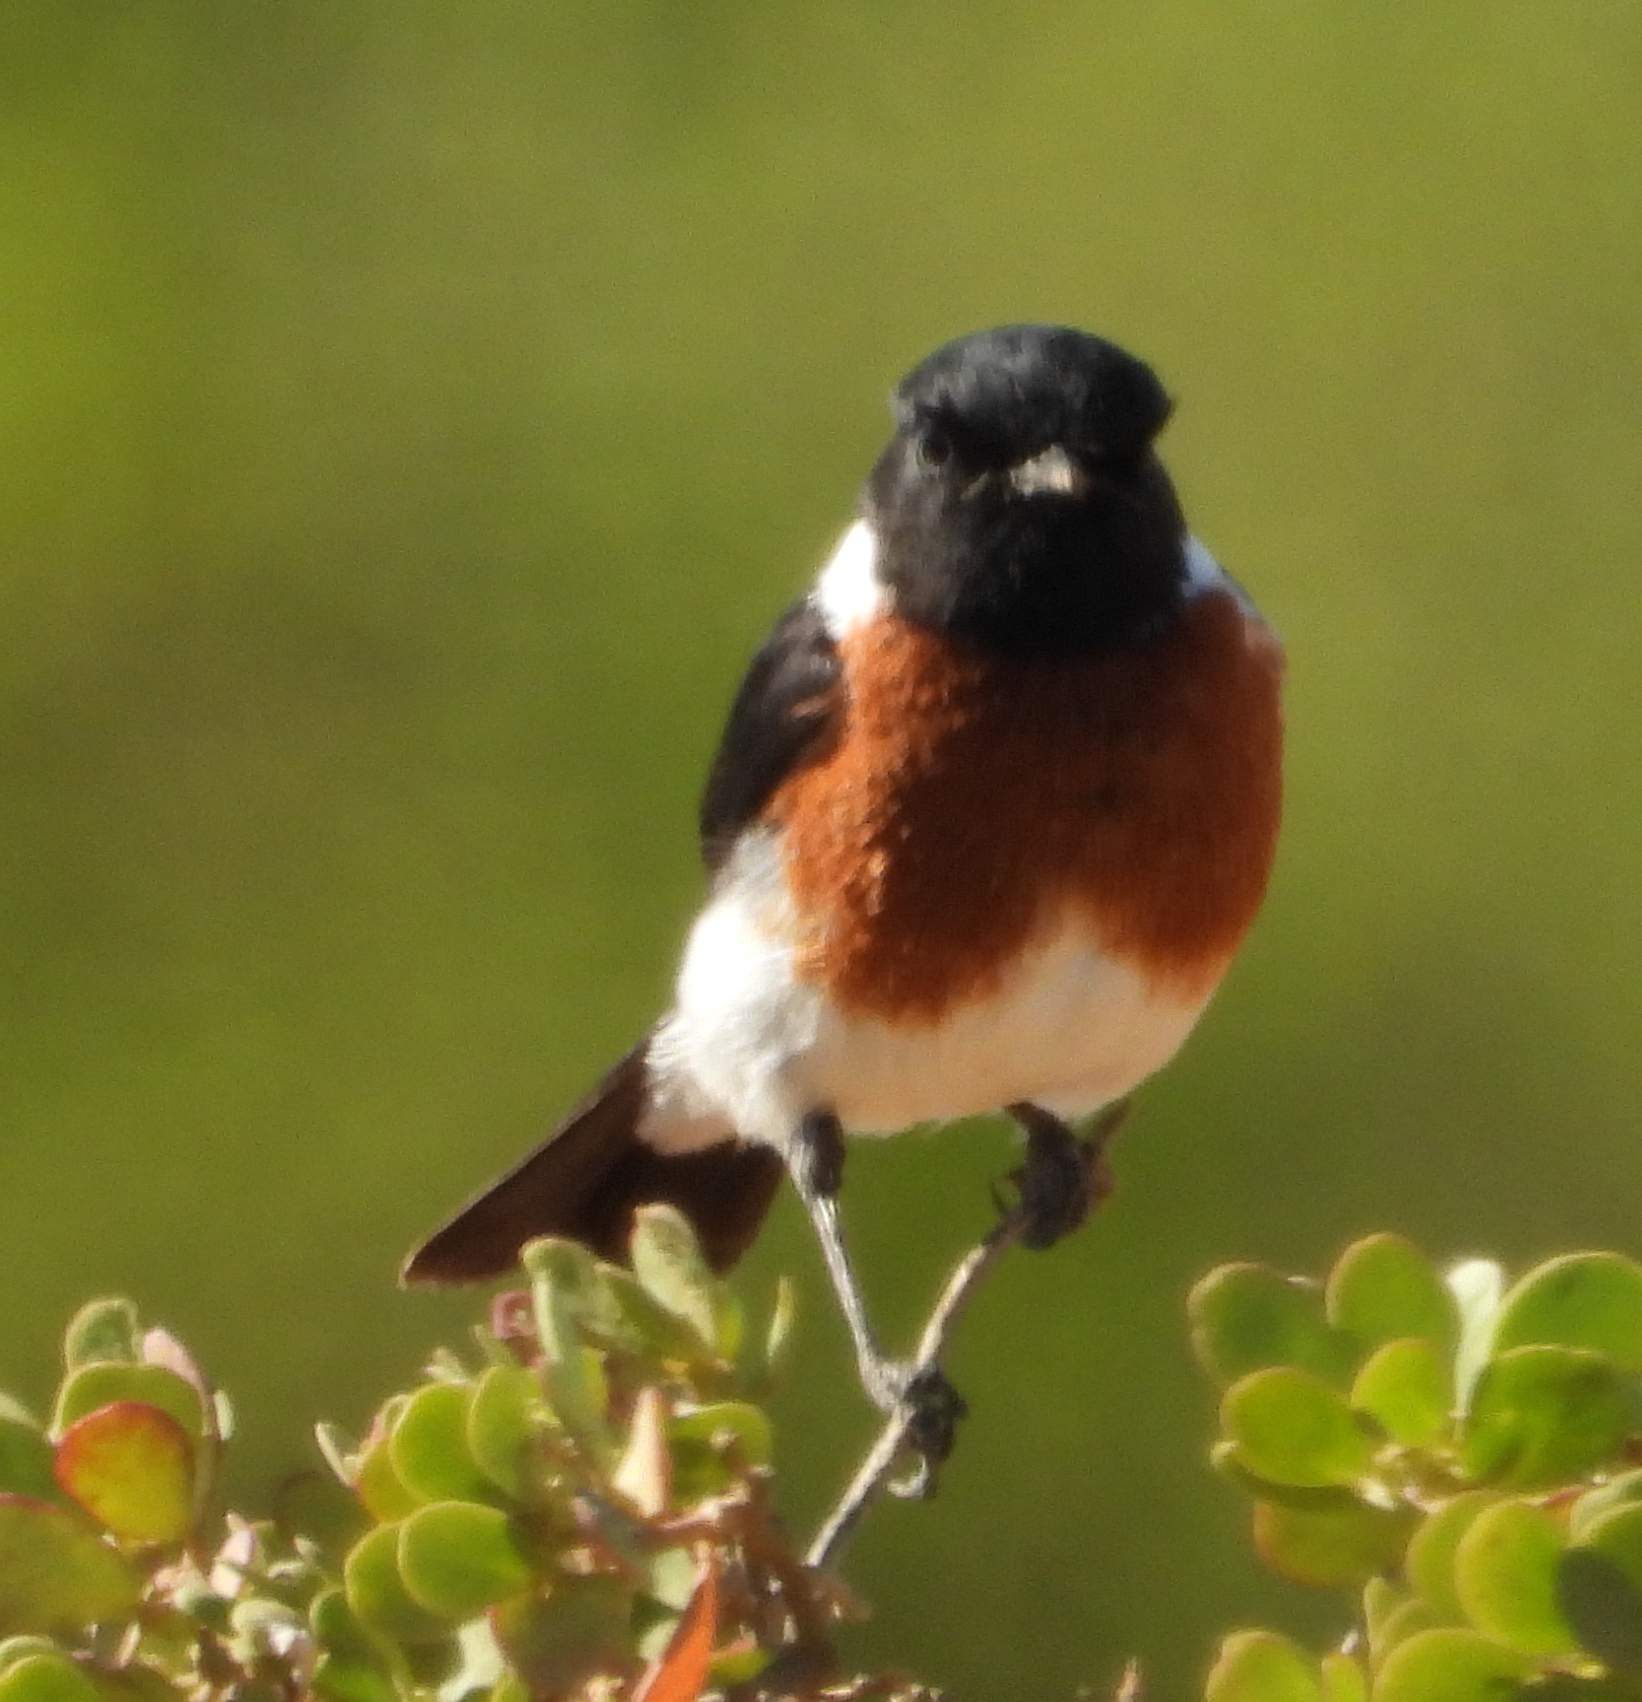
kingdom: Animalia
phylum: Chordata
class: Aves
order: Passeriformes
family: Muscicapidae
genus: Saxicola
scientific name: Saxicola torquatus
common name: African stonechat
